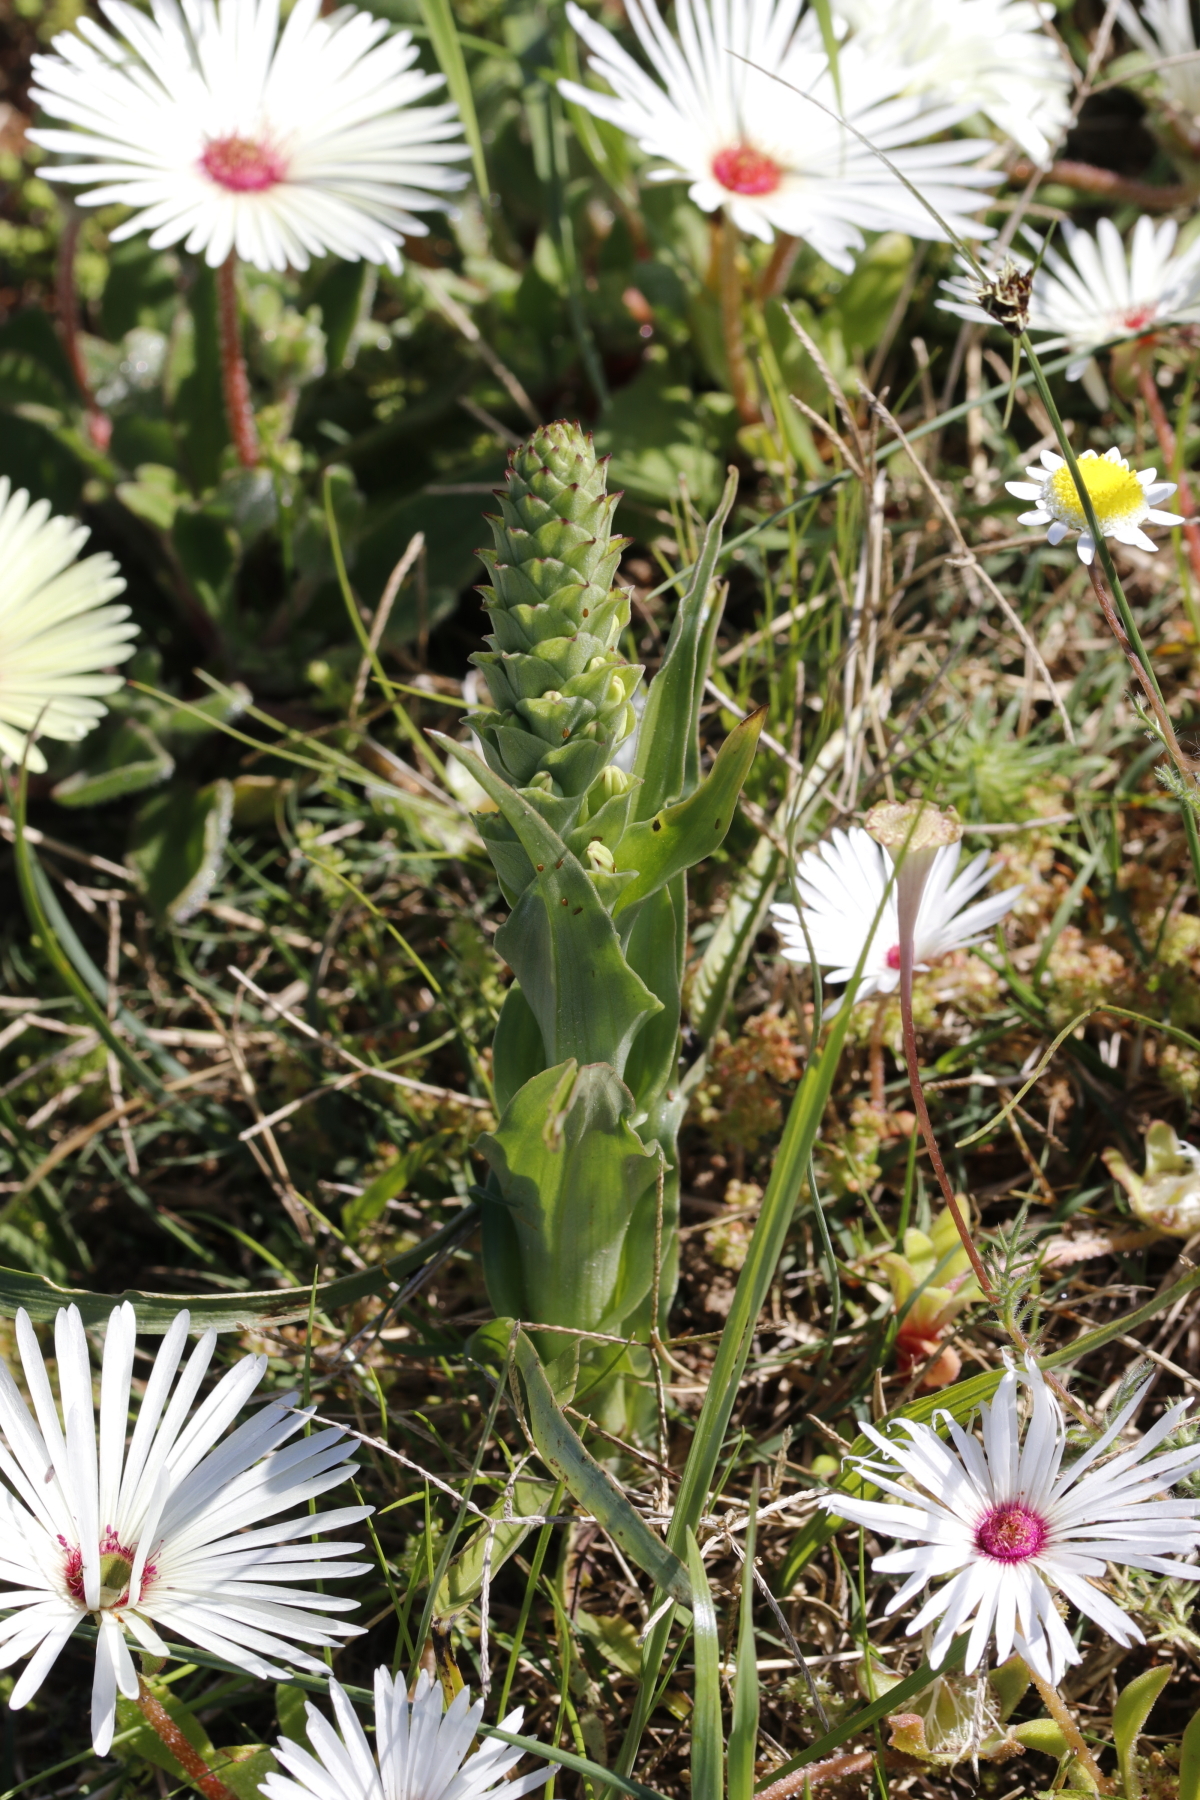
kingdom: Plantae
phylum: Tracheophyta
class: Liliopsida
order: Asparagales
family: Orchidaceae
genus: Corycium
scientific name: Corycium orobanchoides
